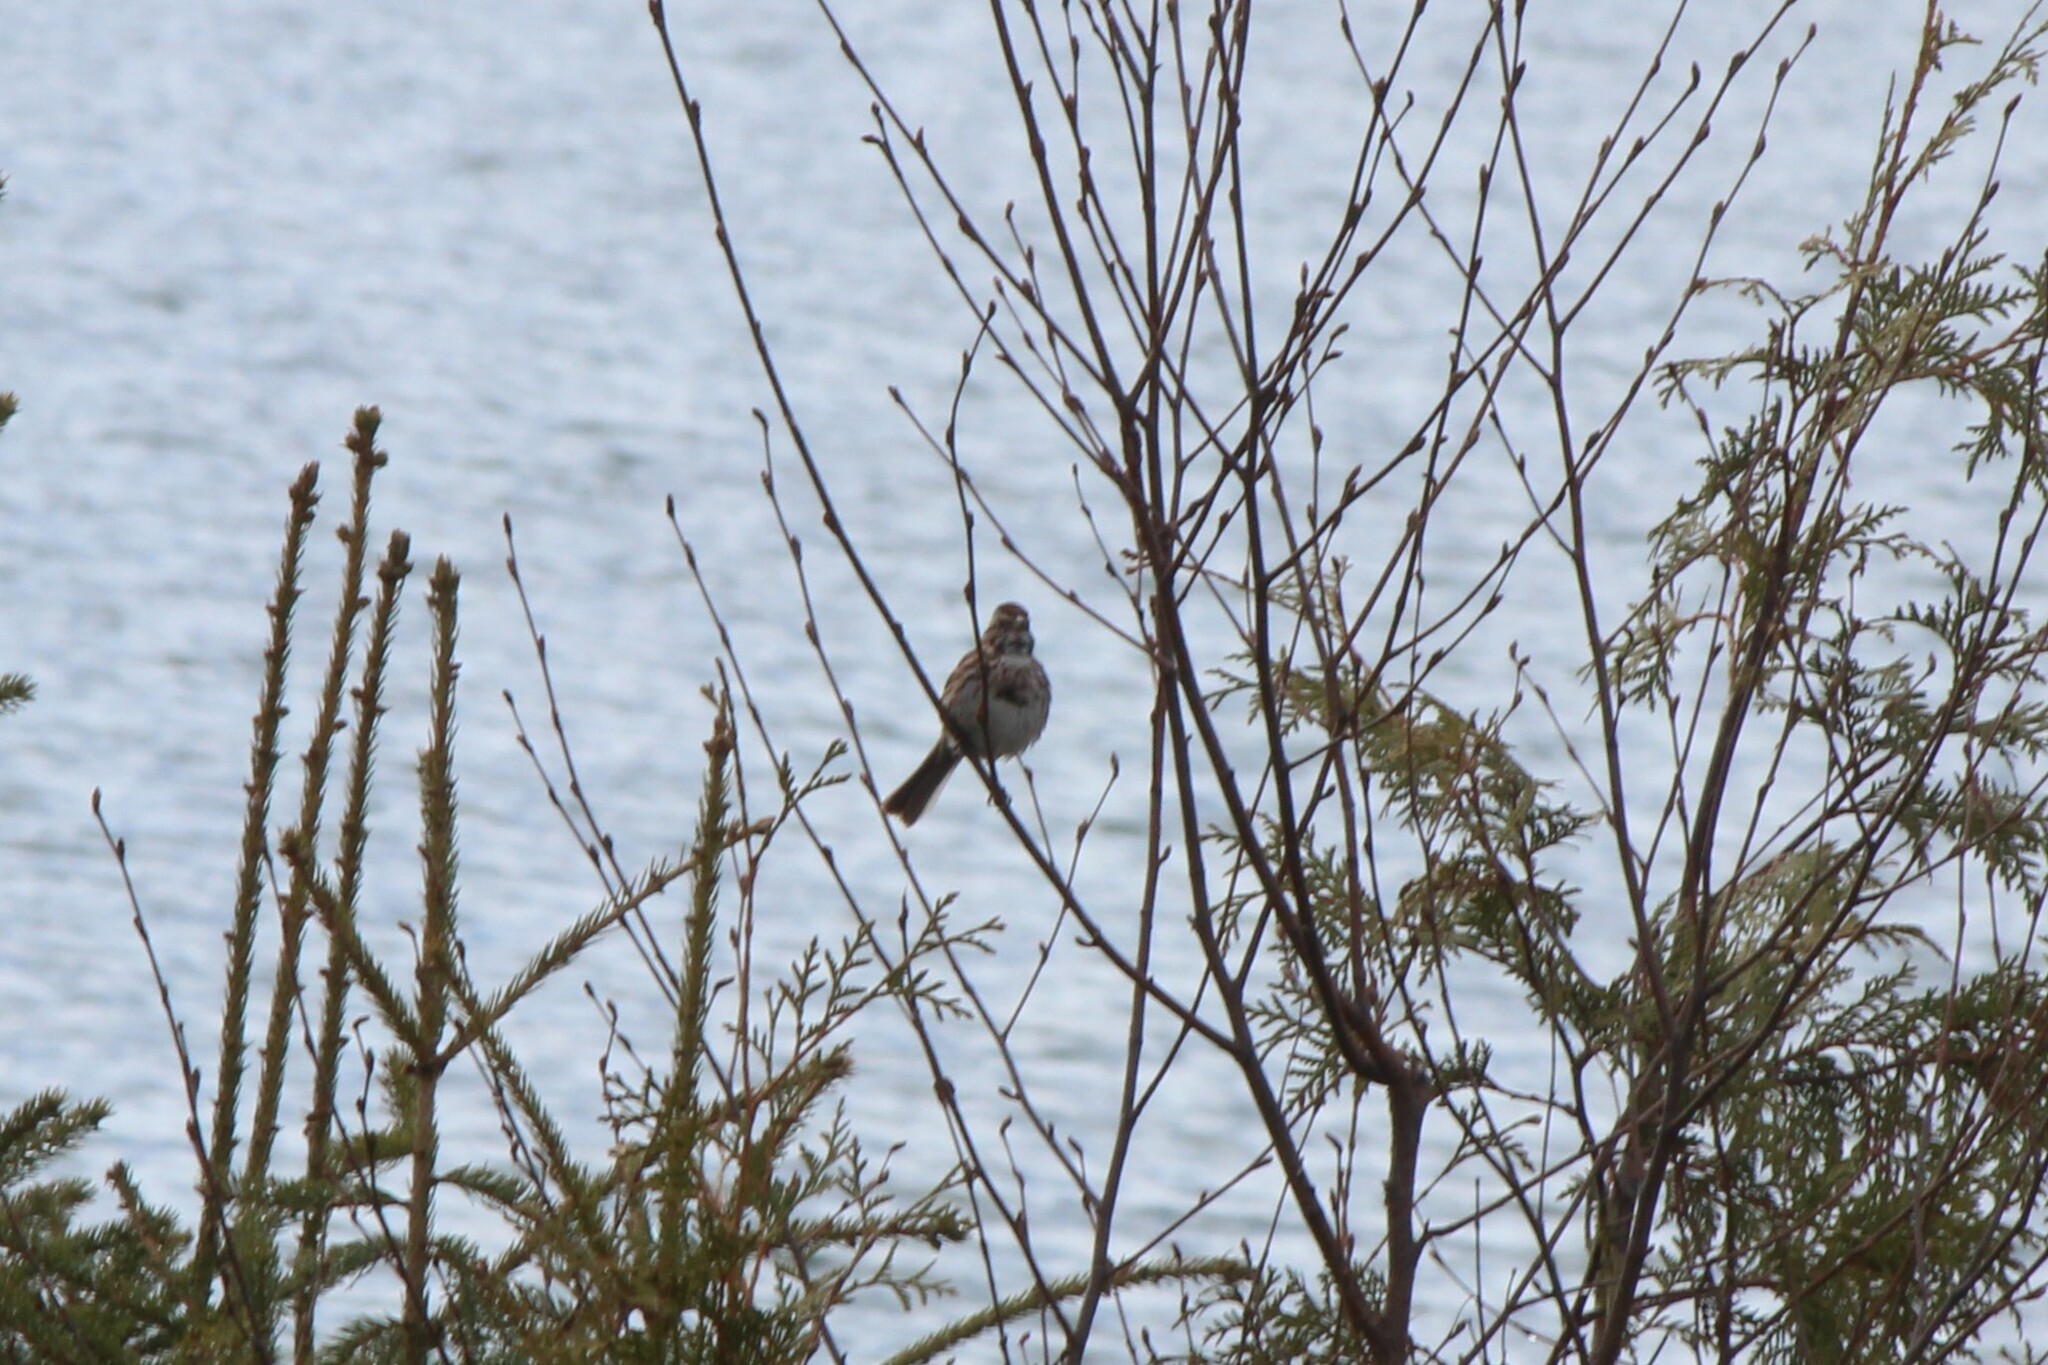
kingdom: Animalia
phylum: Chordata
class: Aves
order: Passeriformes
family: Passerellidae
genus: Melospiza
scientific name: Melospiza melodia
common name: Song sparrow
